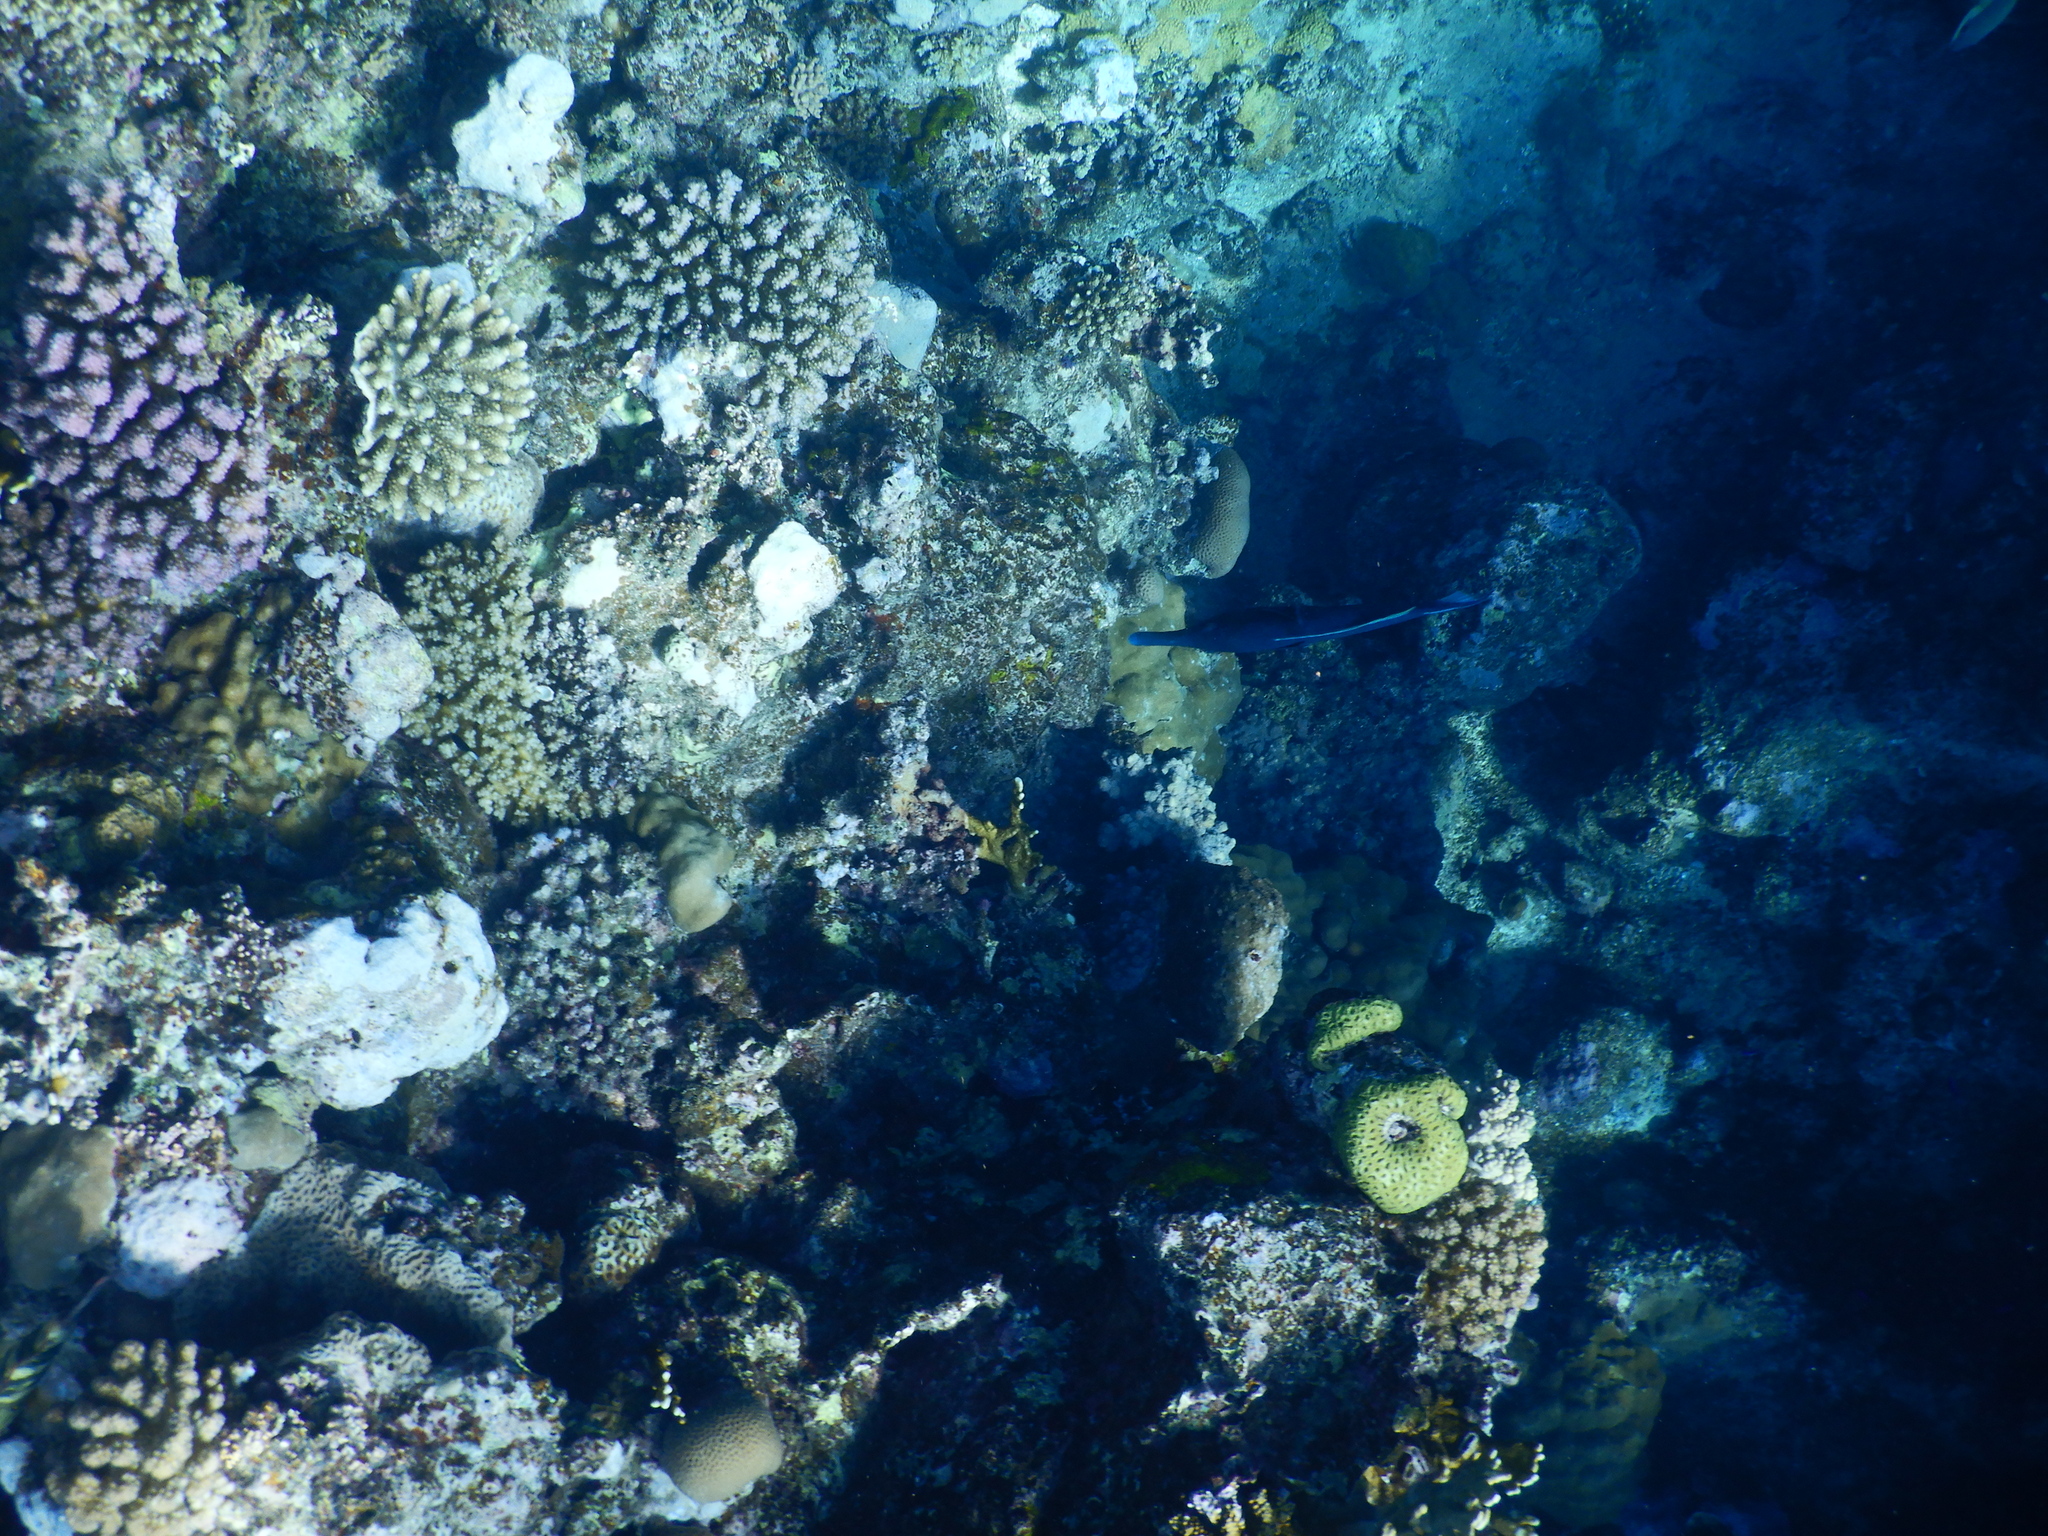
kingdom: Animalia
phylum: Chordata
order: Perciformes
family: Labridae
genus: Gomphosus
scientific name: Gomphosus klunzingeri
